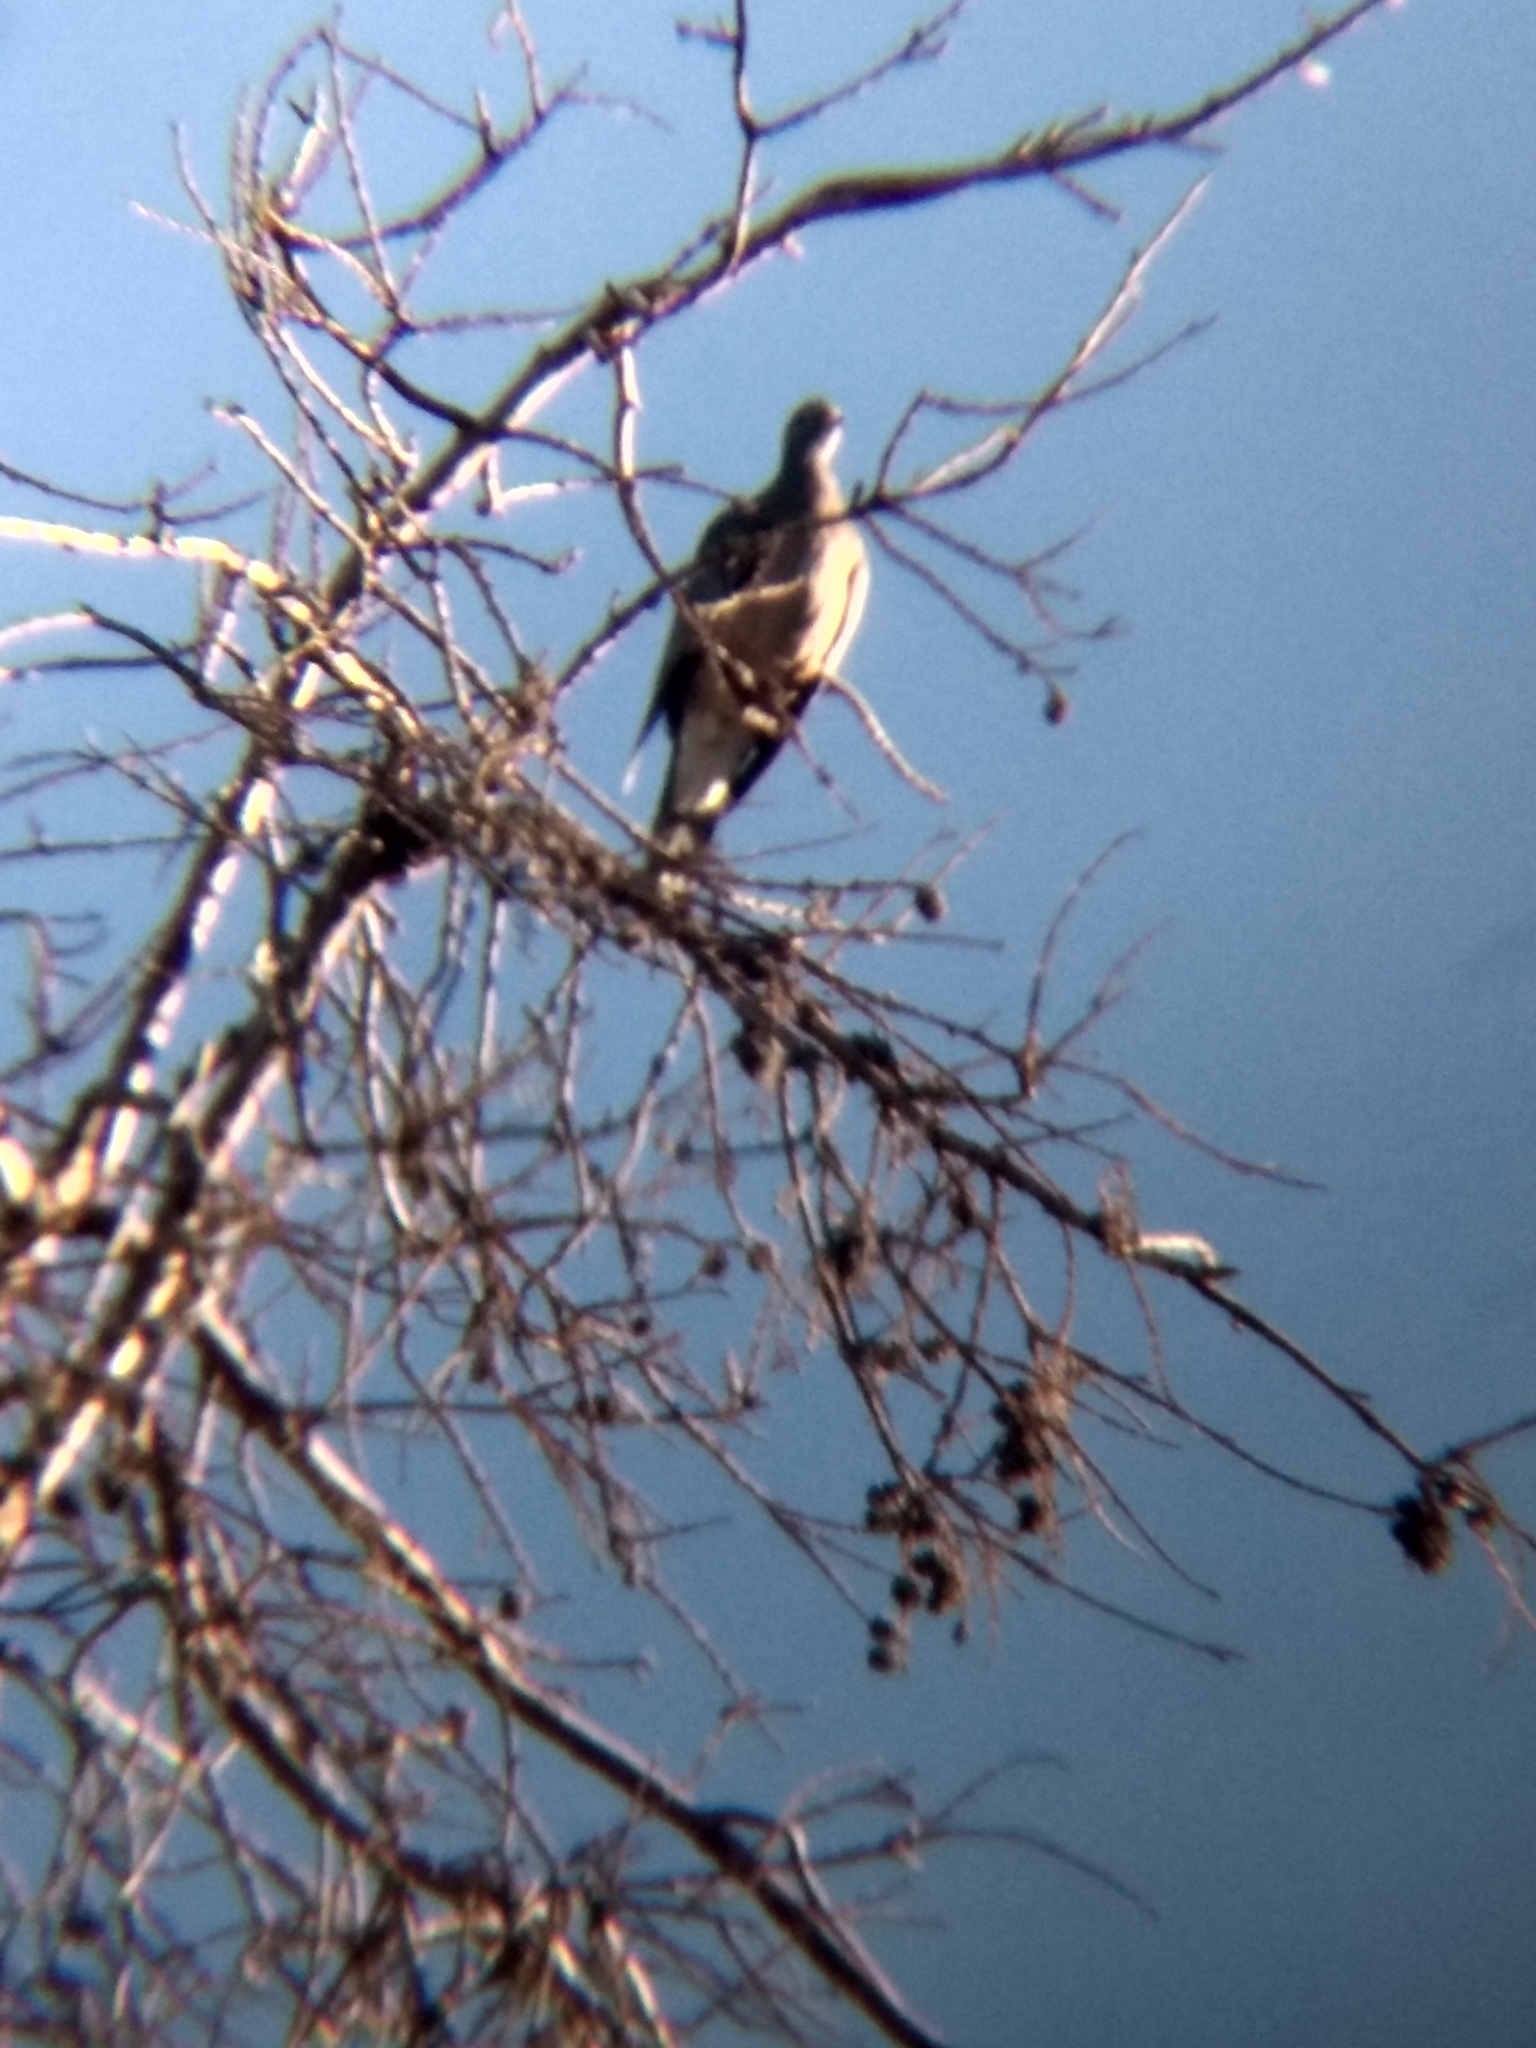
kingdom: Animalia
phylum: Chordata
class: Aves
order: Columbiformes
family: Columbidae
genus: Patagioenas
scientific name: Patagioenas fasciata
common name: Band-tailed pigeon
